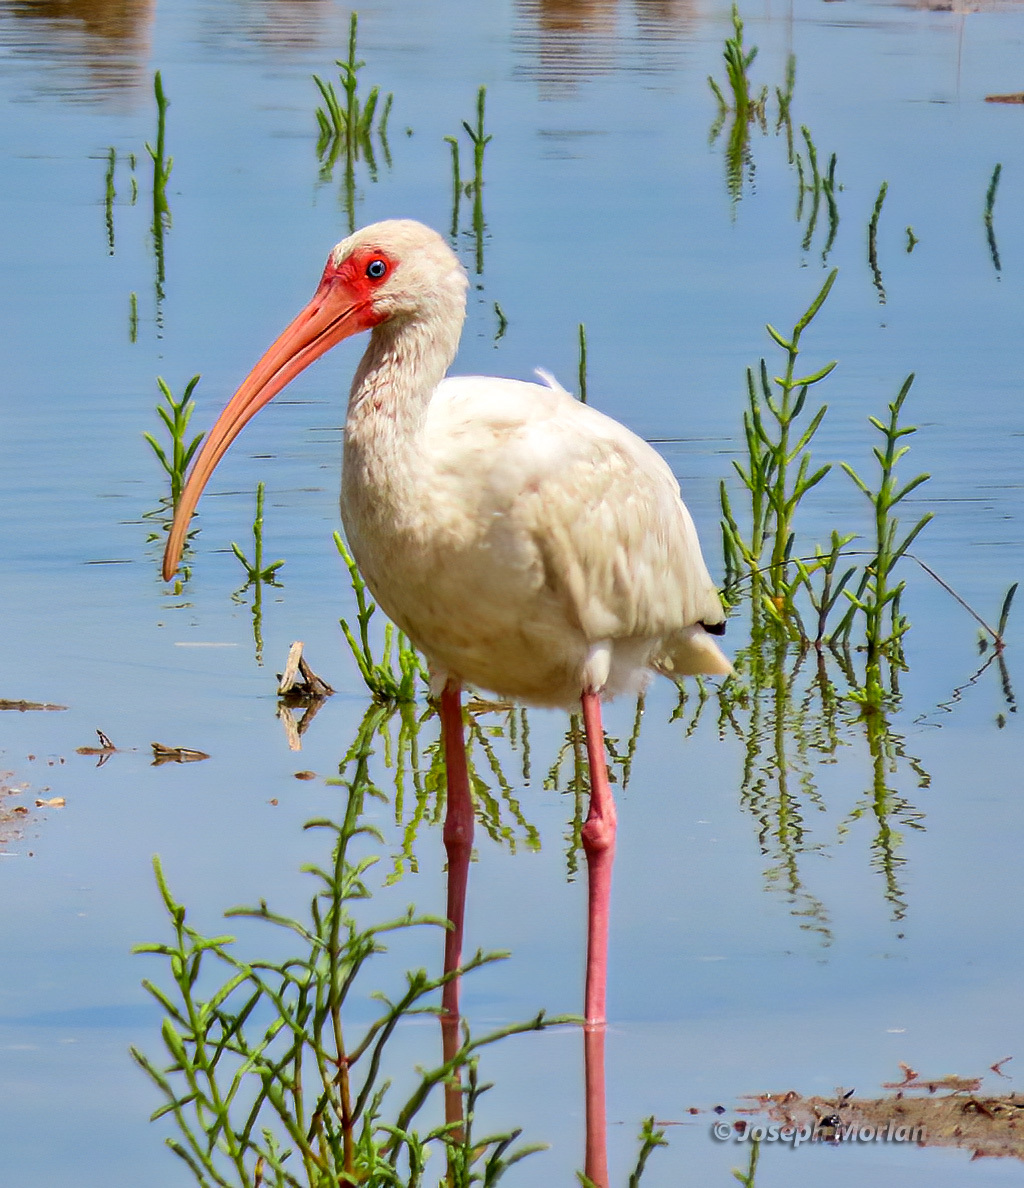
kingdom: Animalia
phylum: Chordata
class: Aves
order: Pelecaniformes
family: Threskiornithidae
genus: Eudocimus
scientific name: Eudocimus albus
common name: White ibis
